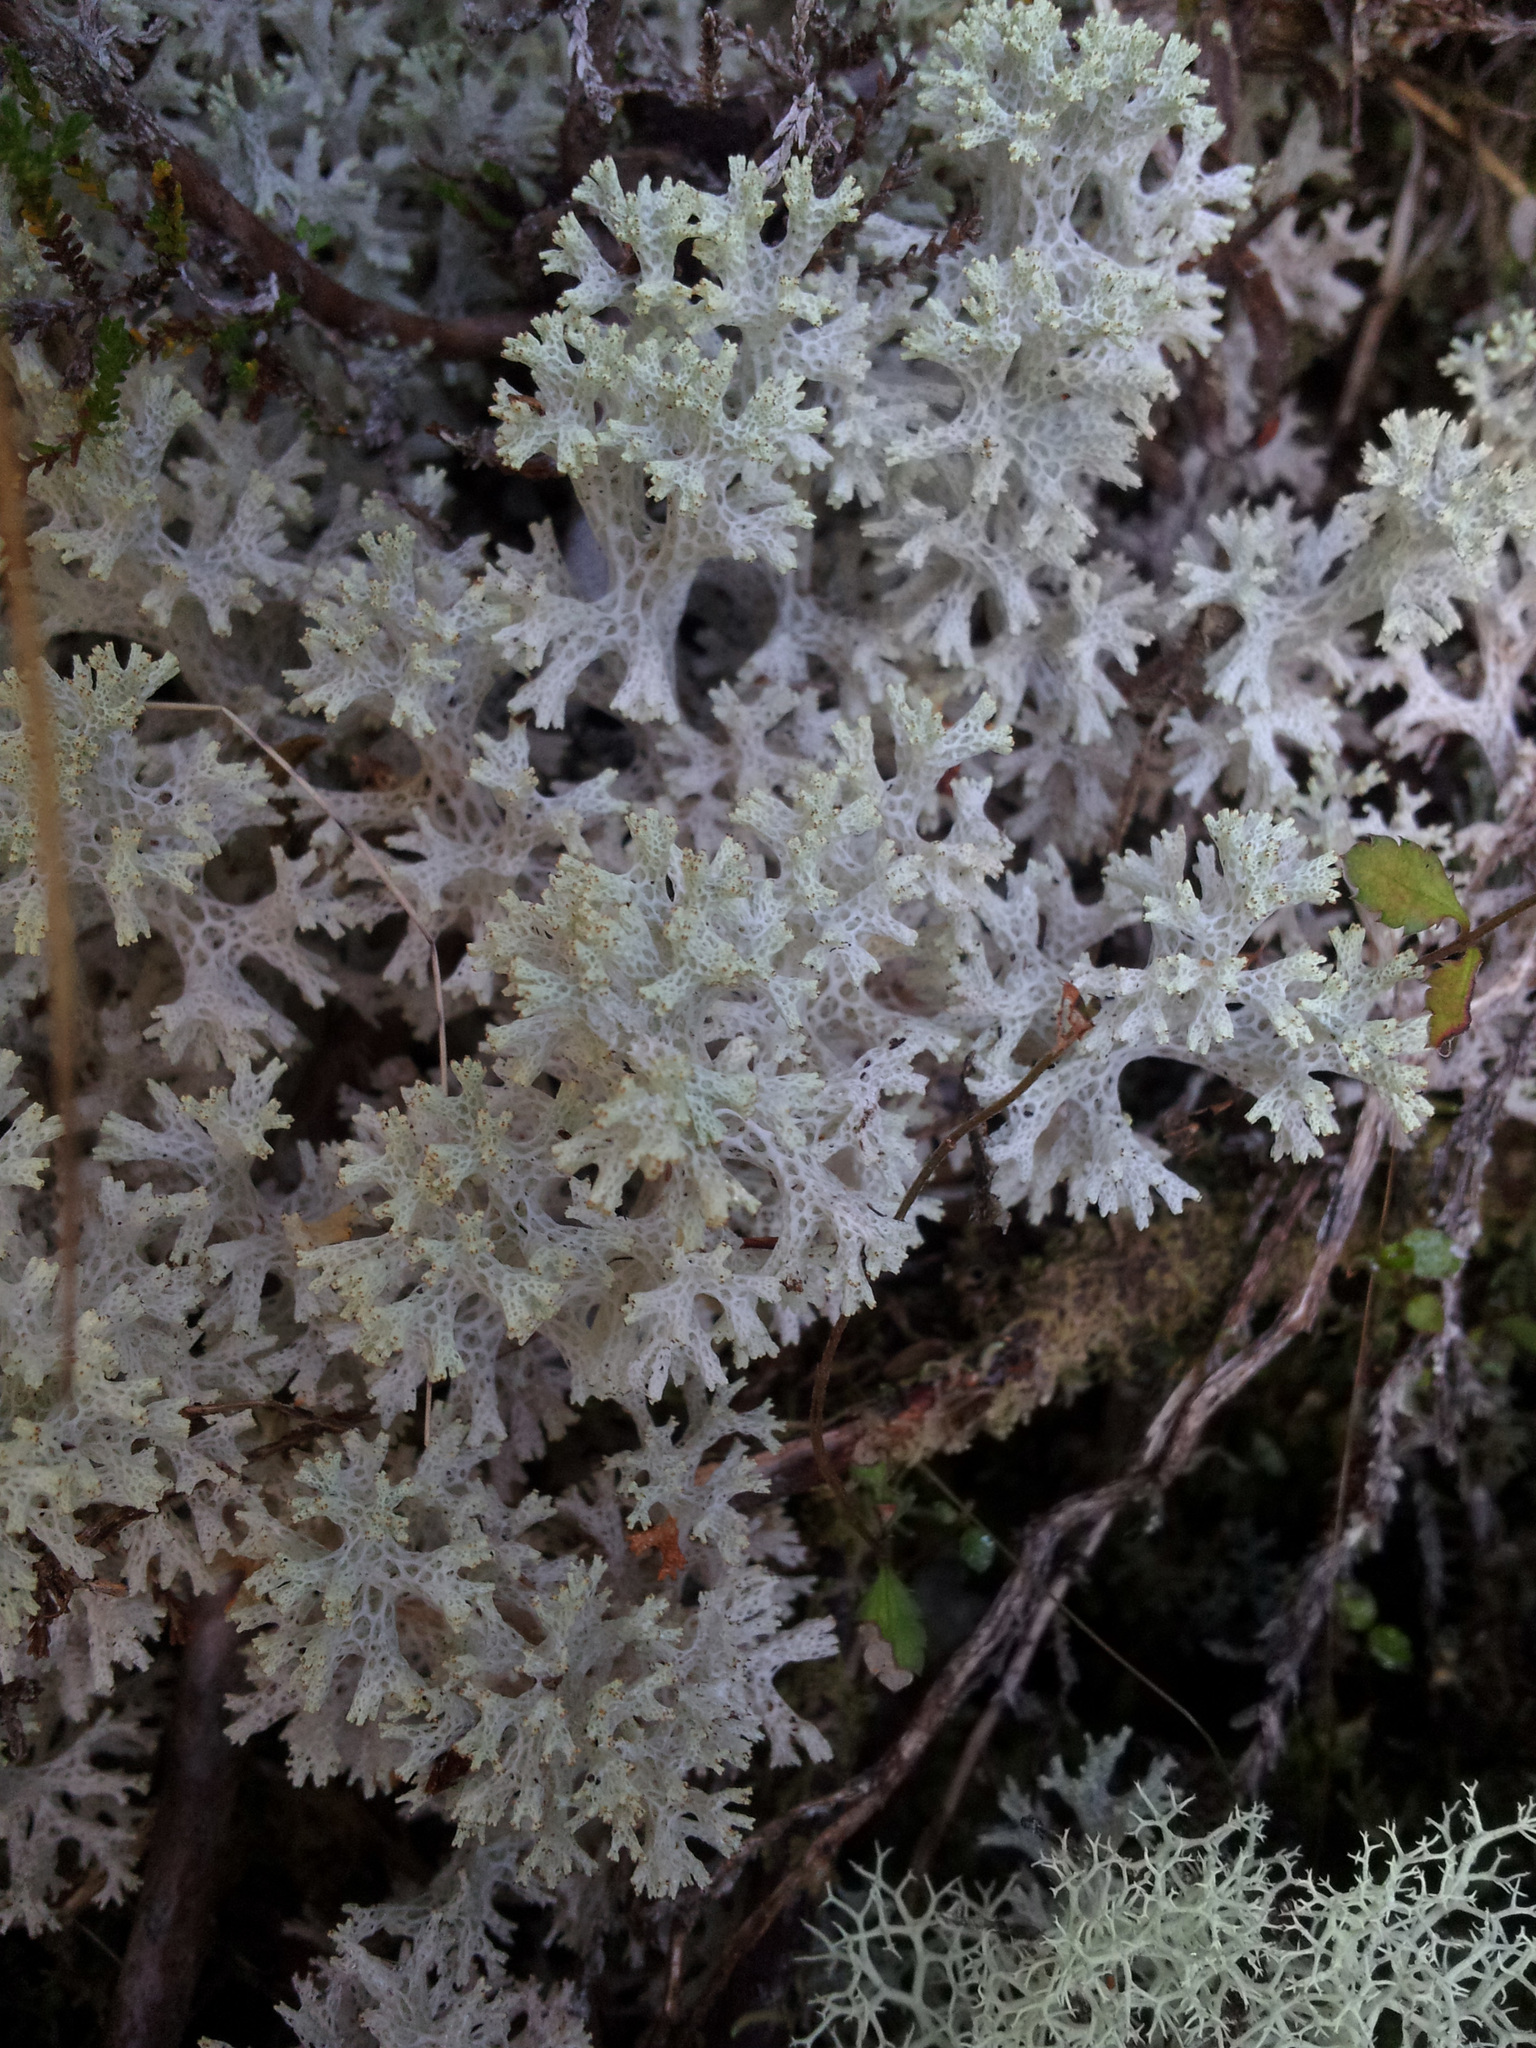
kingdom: Fungi
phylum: Ascomycota
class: Lecanoromycetes
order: Lecanorales
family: Cladoniaceae
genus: Pulchrocladia
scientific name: Pulchrocladia retipora
